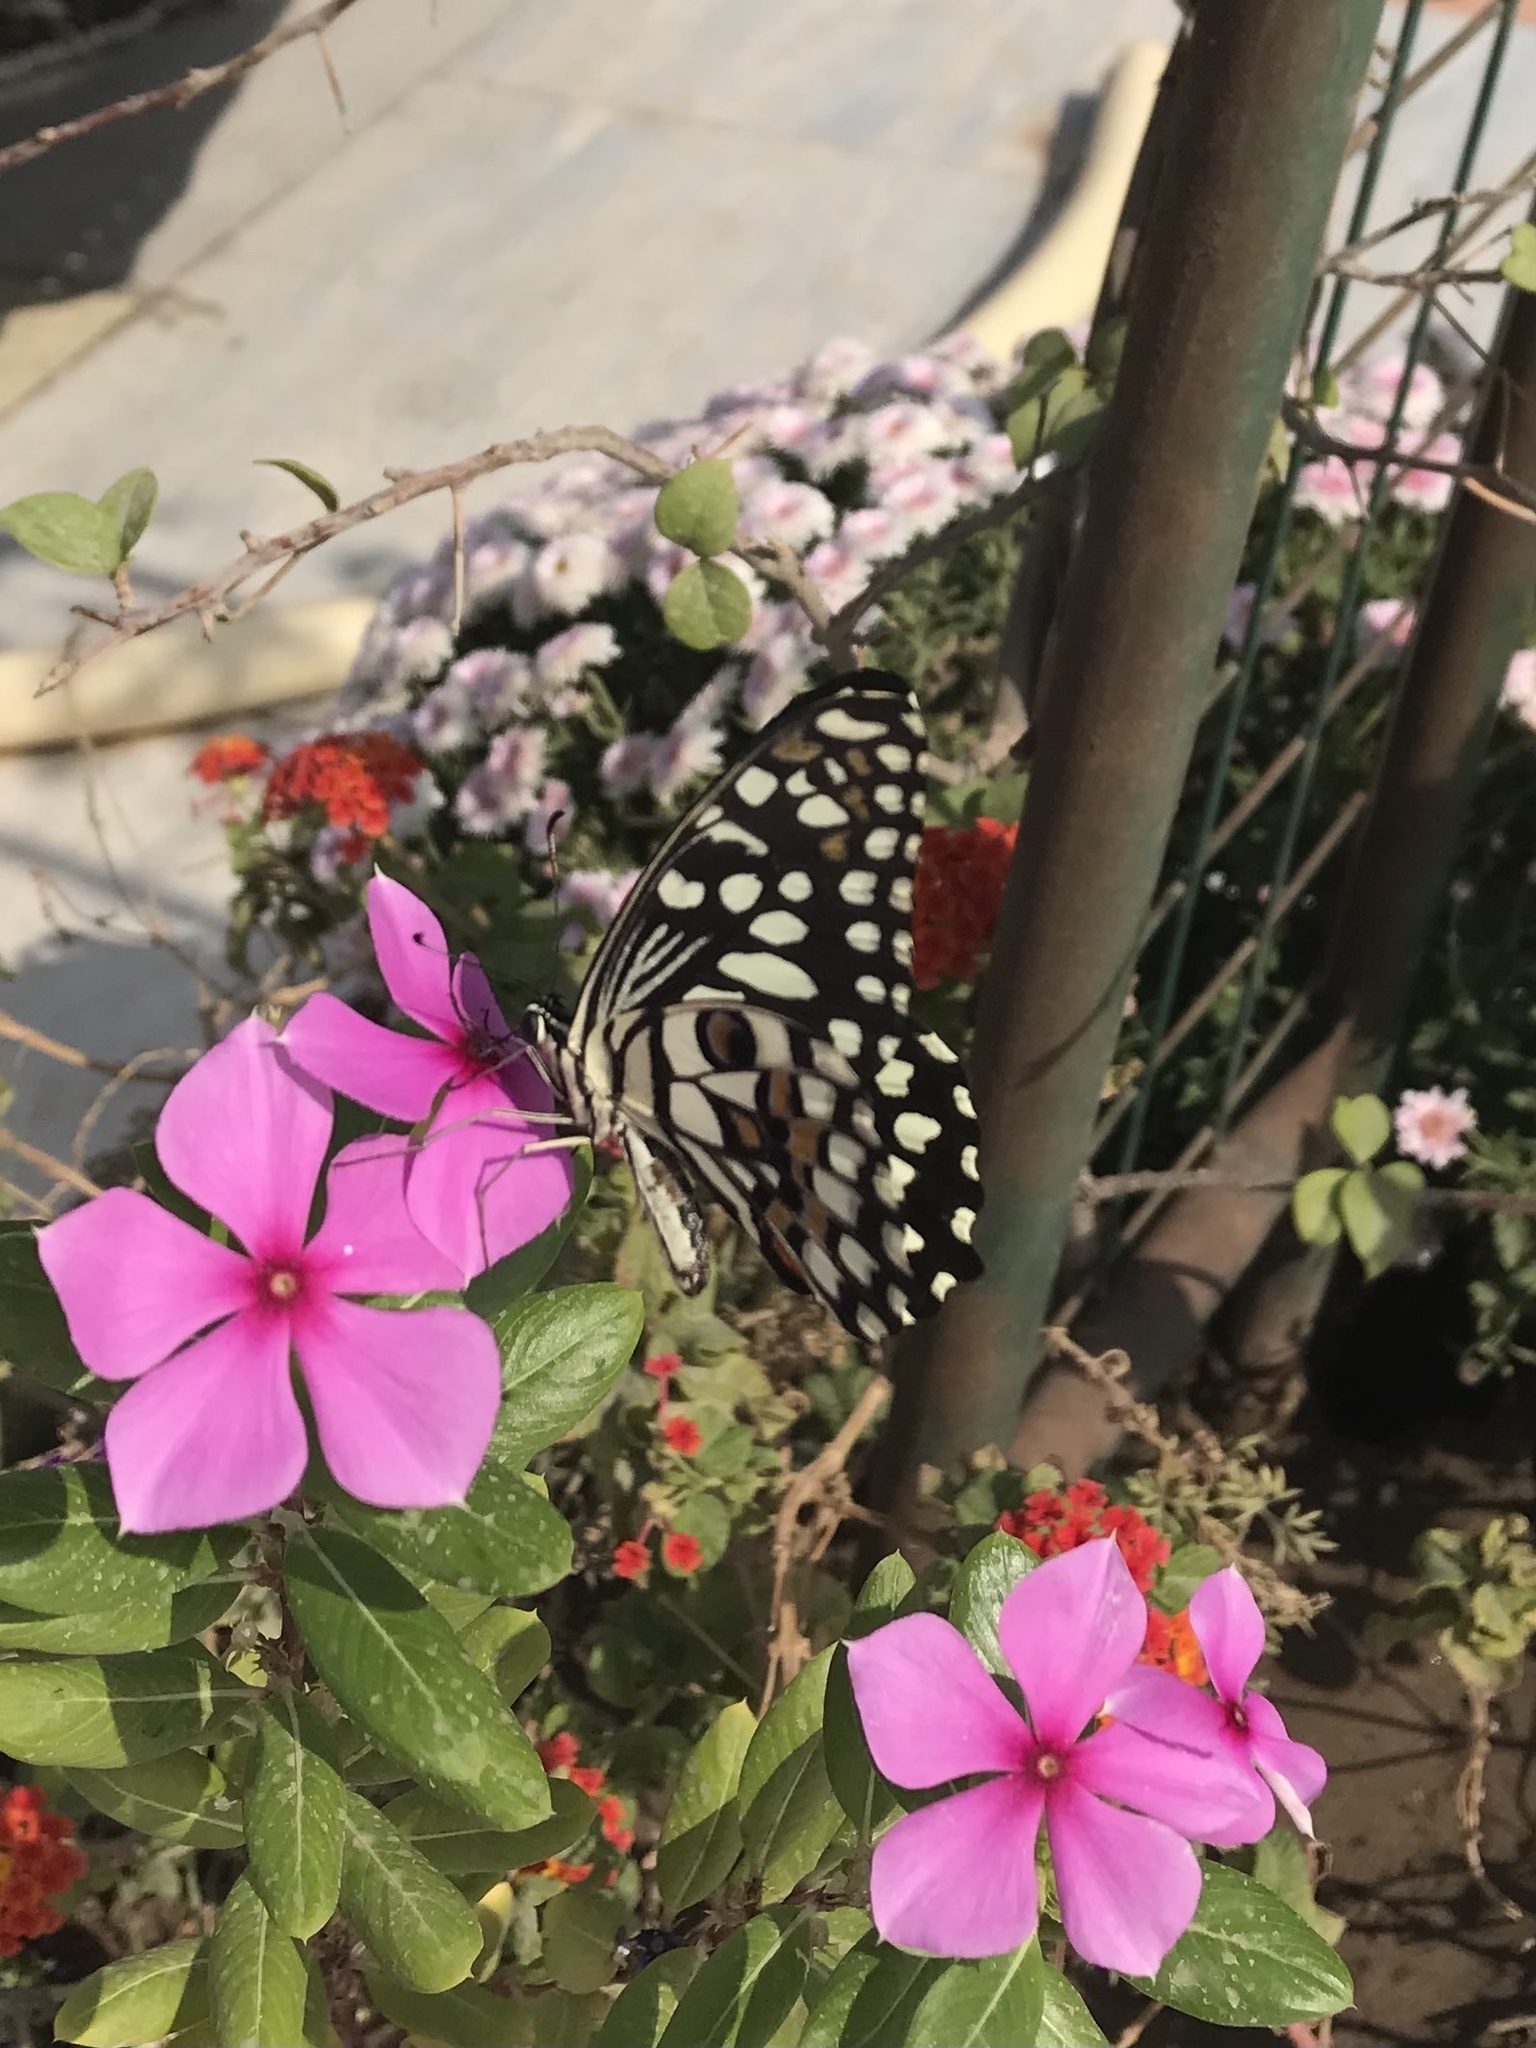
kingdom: Animalia
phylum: Arthropoda
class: Insecta
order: Lepidoptera
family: Papilionidae
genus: Papilio
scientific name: Papilio demoleus
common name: Lime butterfly
